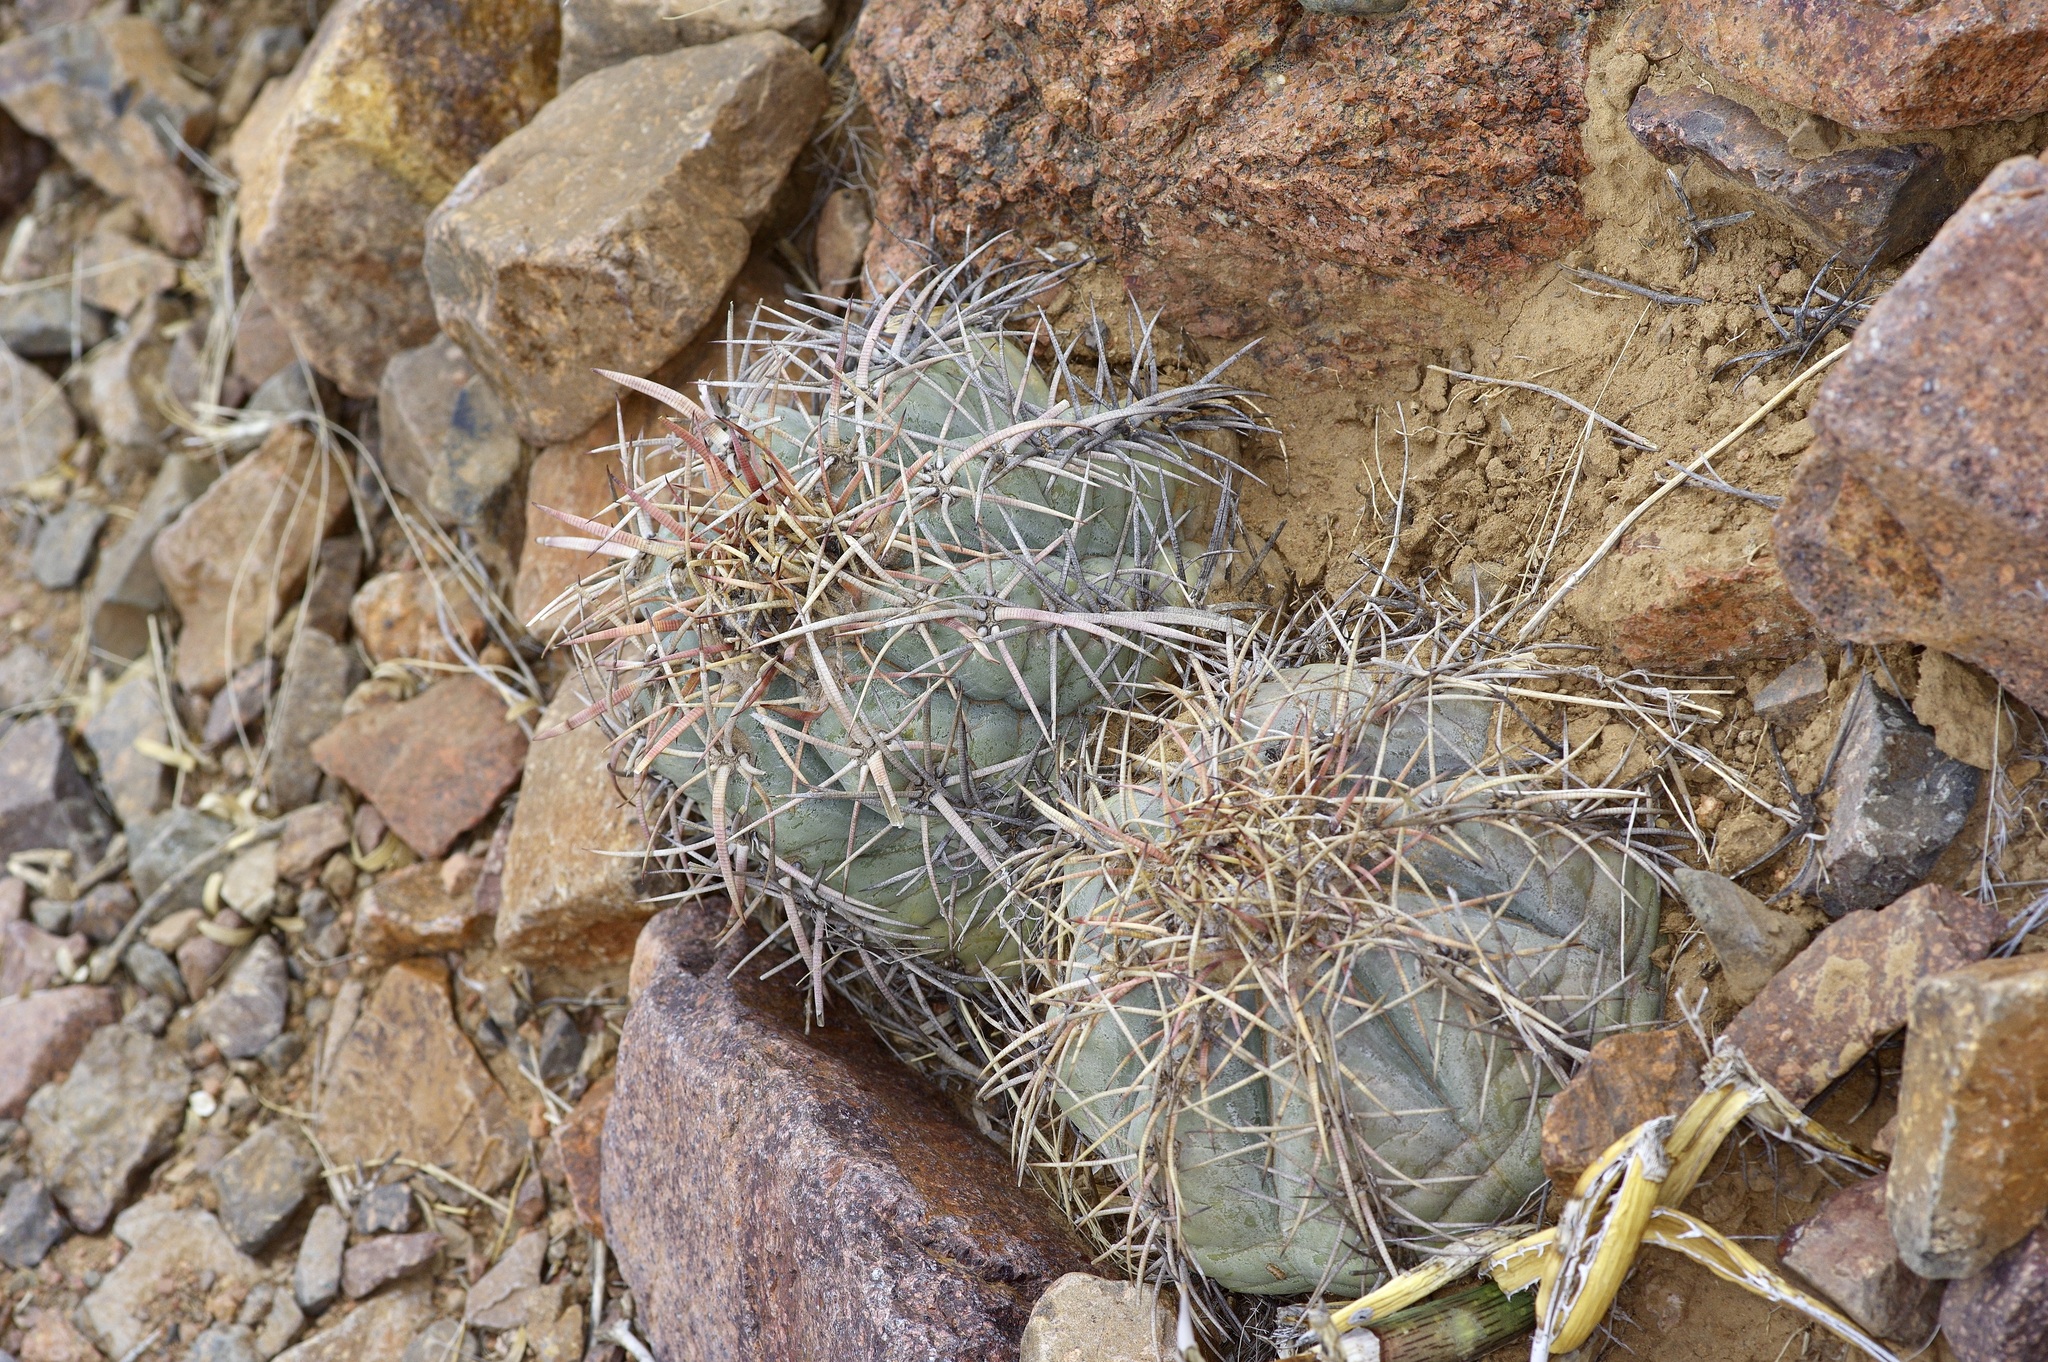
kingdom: Plantae
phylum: Tracheophyta
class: Magnoliopsida
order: Caryophyllales
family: Cactaceae
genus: Echinocactus
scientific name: Echinocactus horizonthalonius
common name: Devilshead
